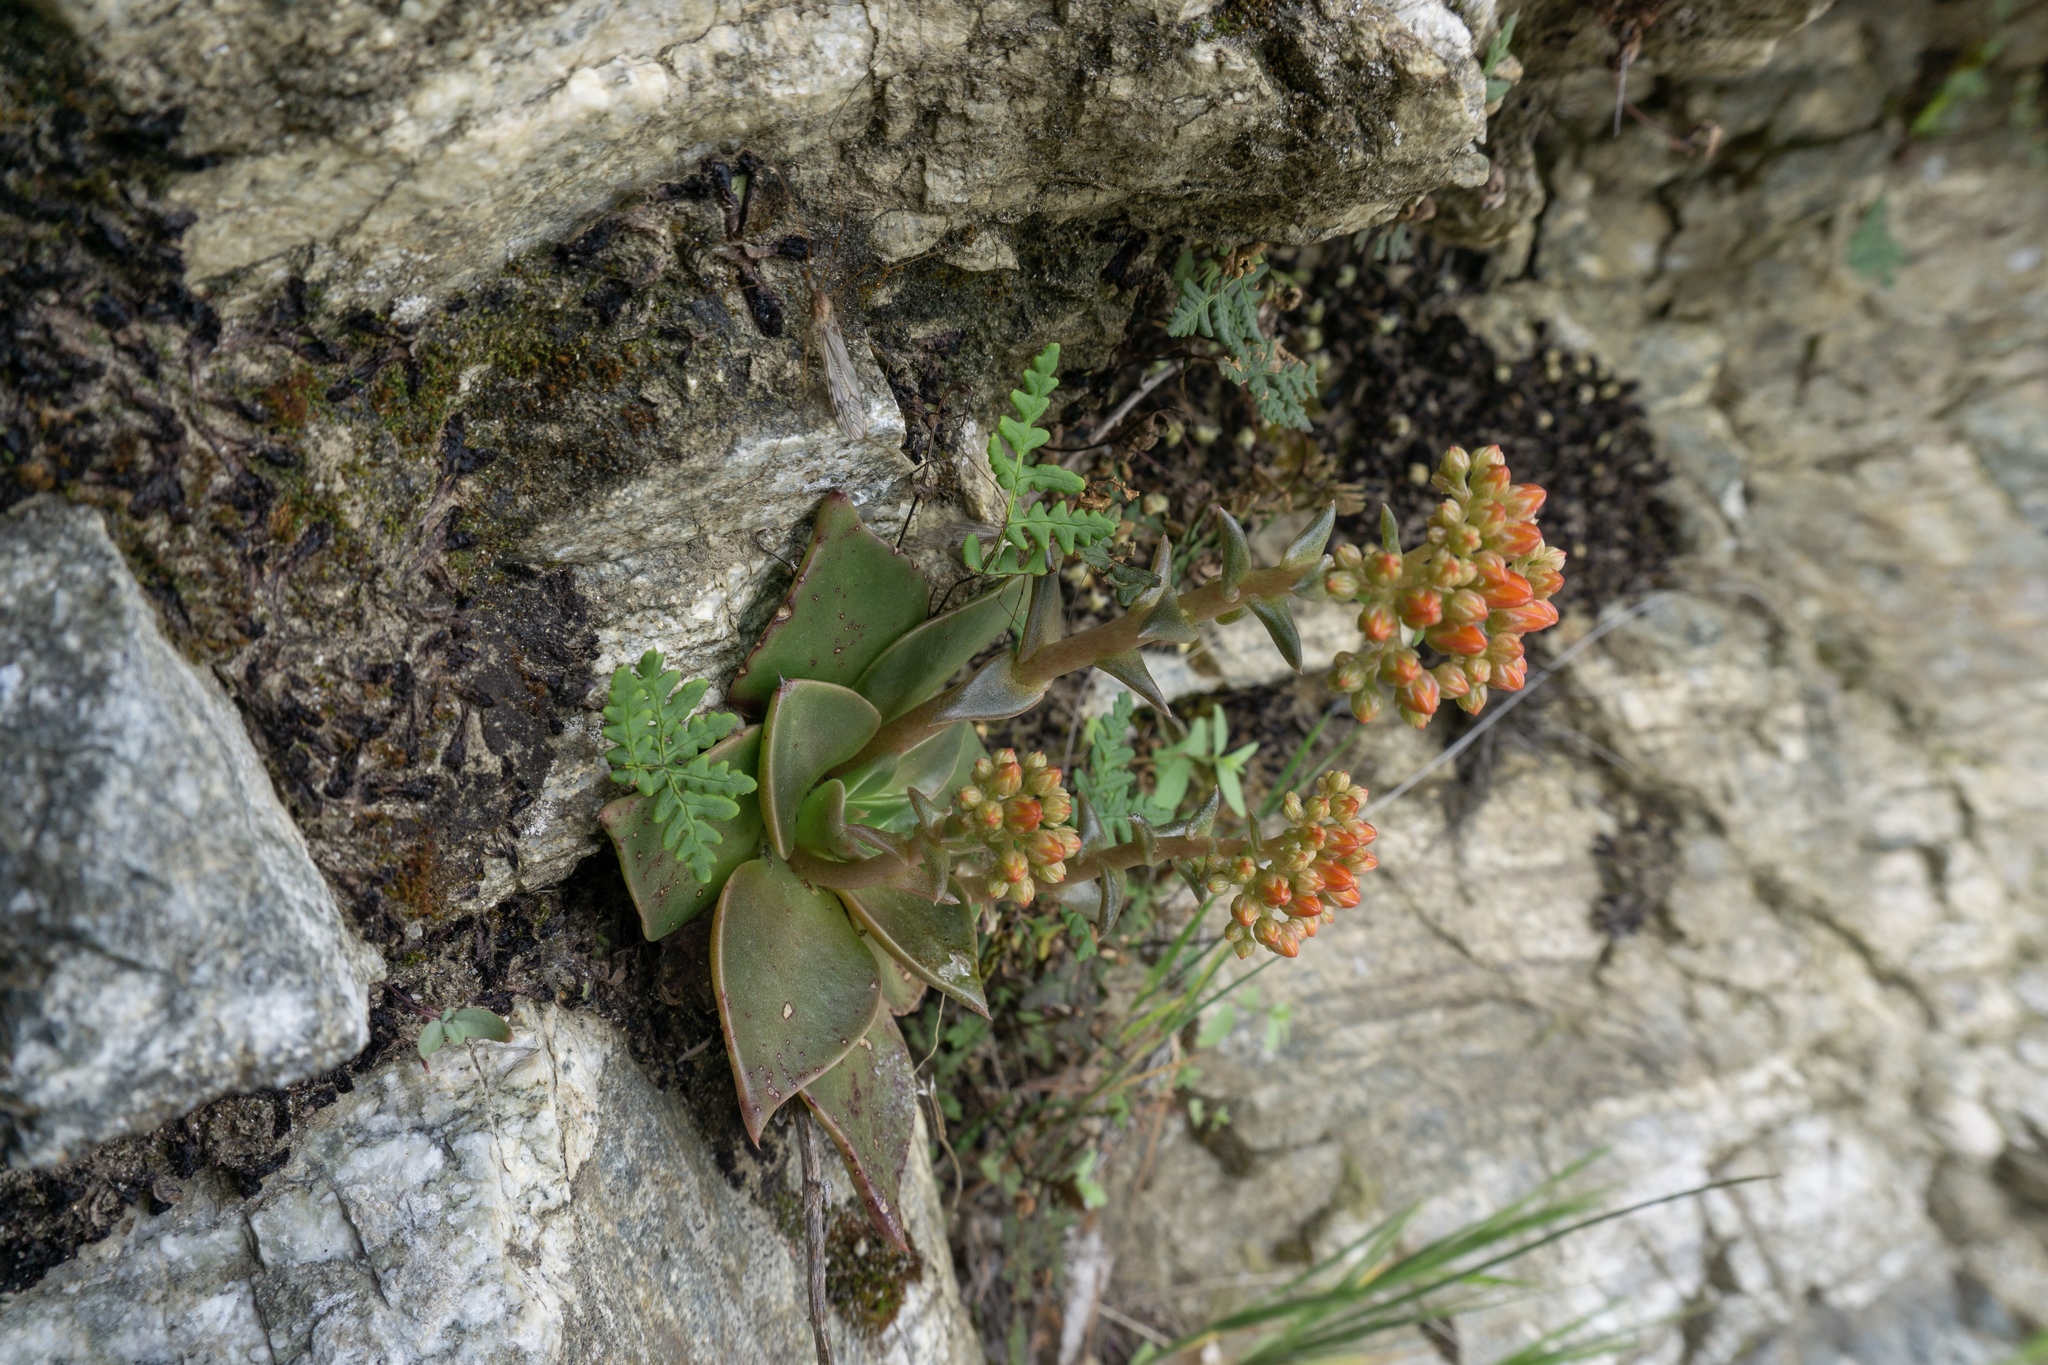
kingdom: Plantae
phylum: Tracheophyta
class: Magnoliopsida
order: Saxifragales
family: Crassulaceae
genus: Dudleya
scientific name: Dudleya cymosa
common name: Canyon dudleya
